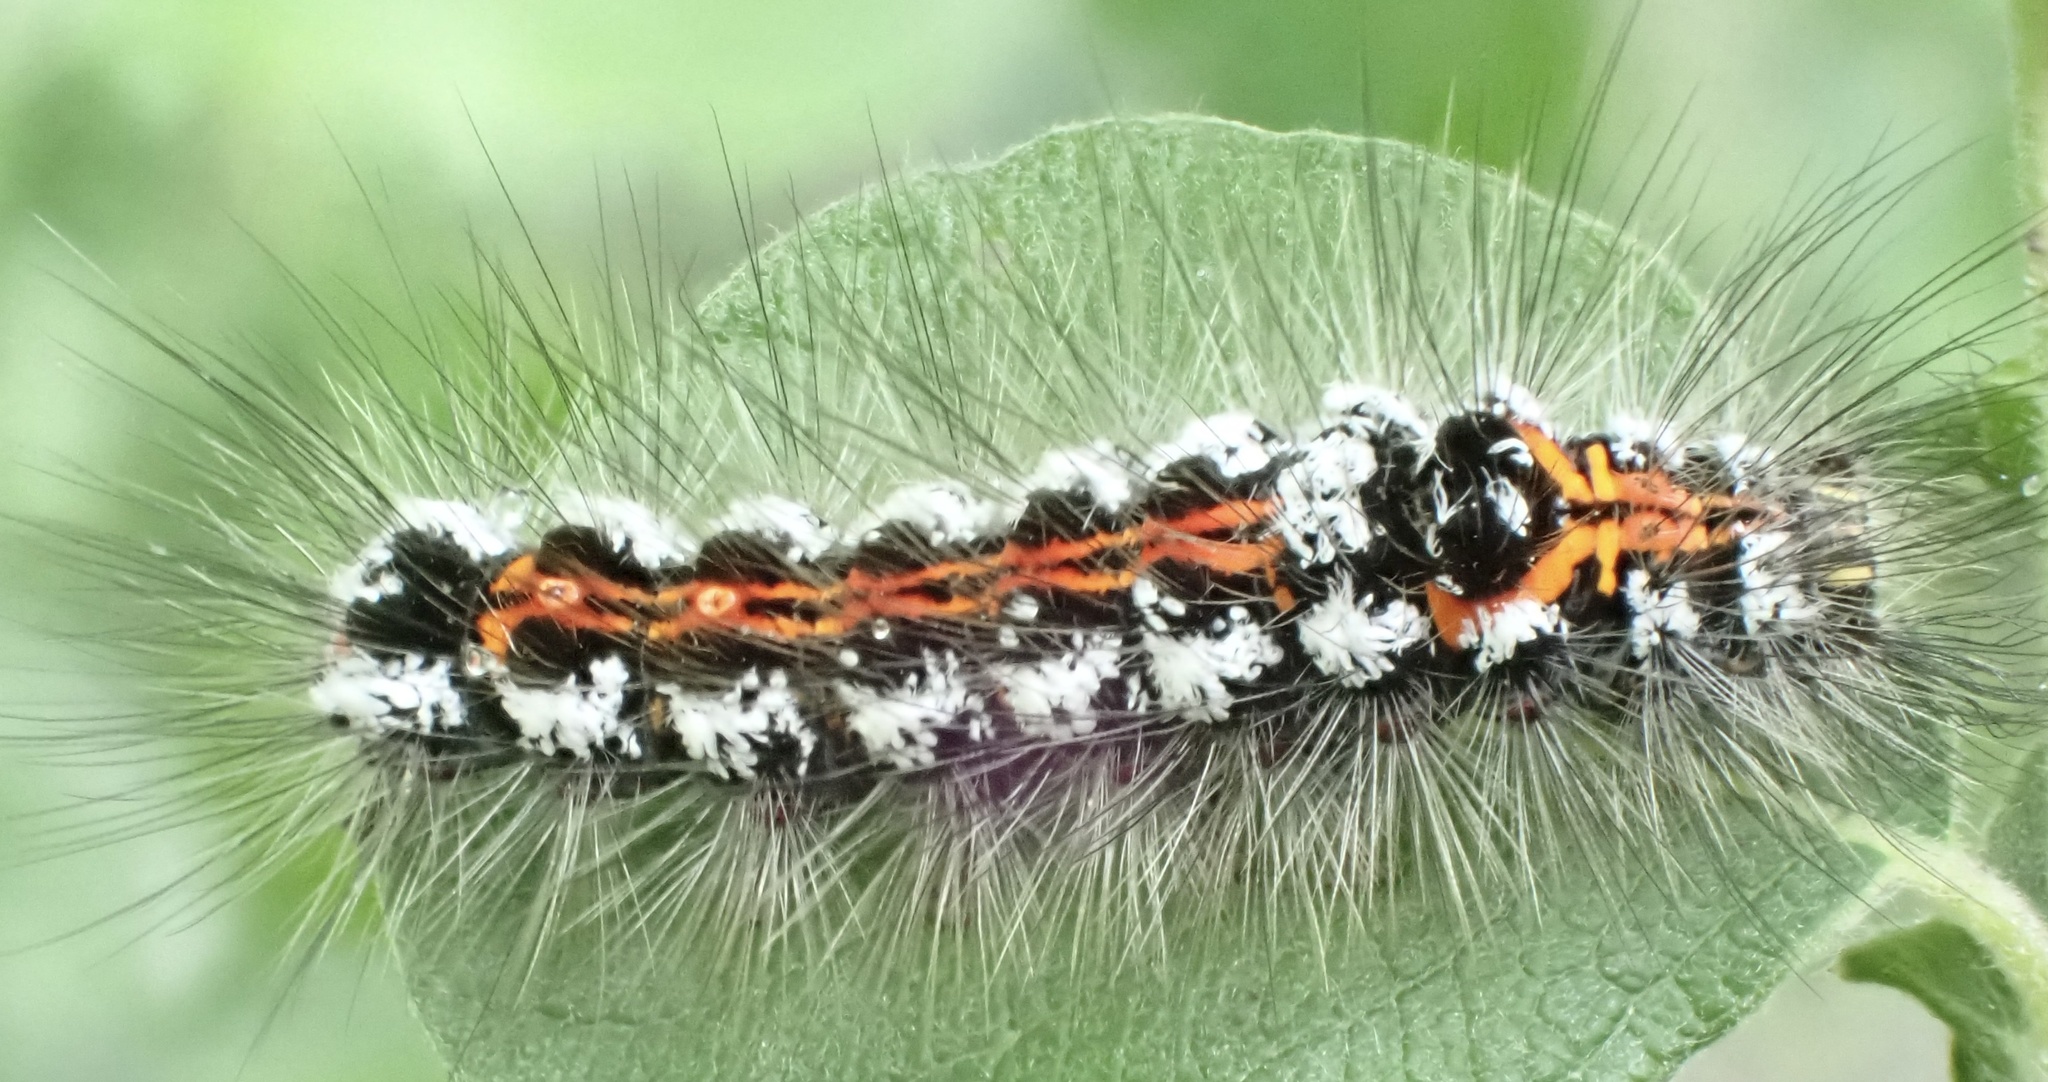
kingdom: Animalia
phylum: Arthropoda
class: Insecta
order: Lepidoptera
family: Erebidae
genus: Sphrageidus
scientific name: Sphrageidus similis
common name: Yellow-tail
